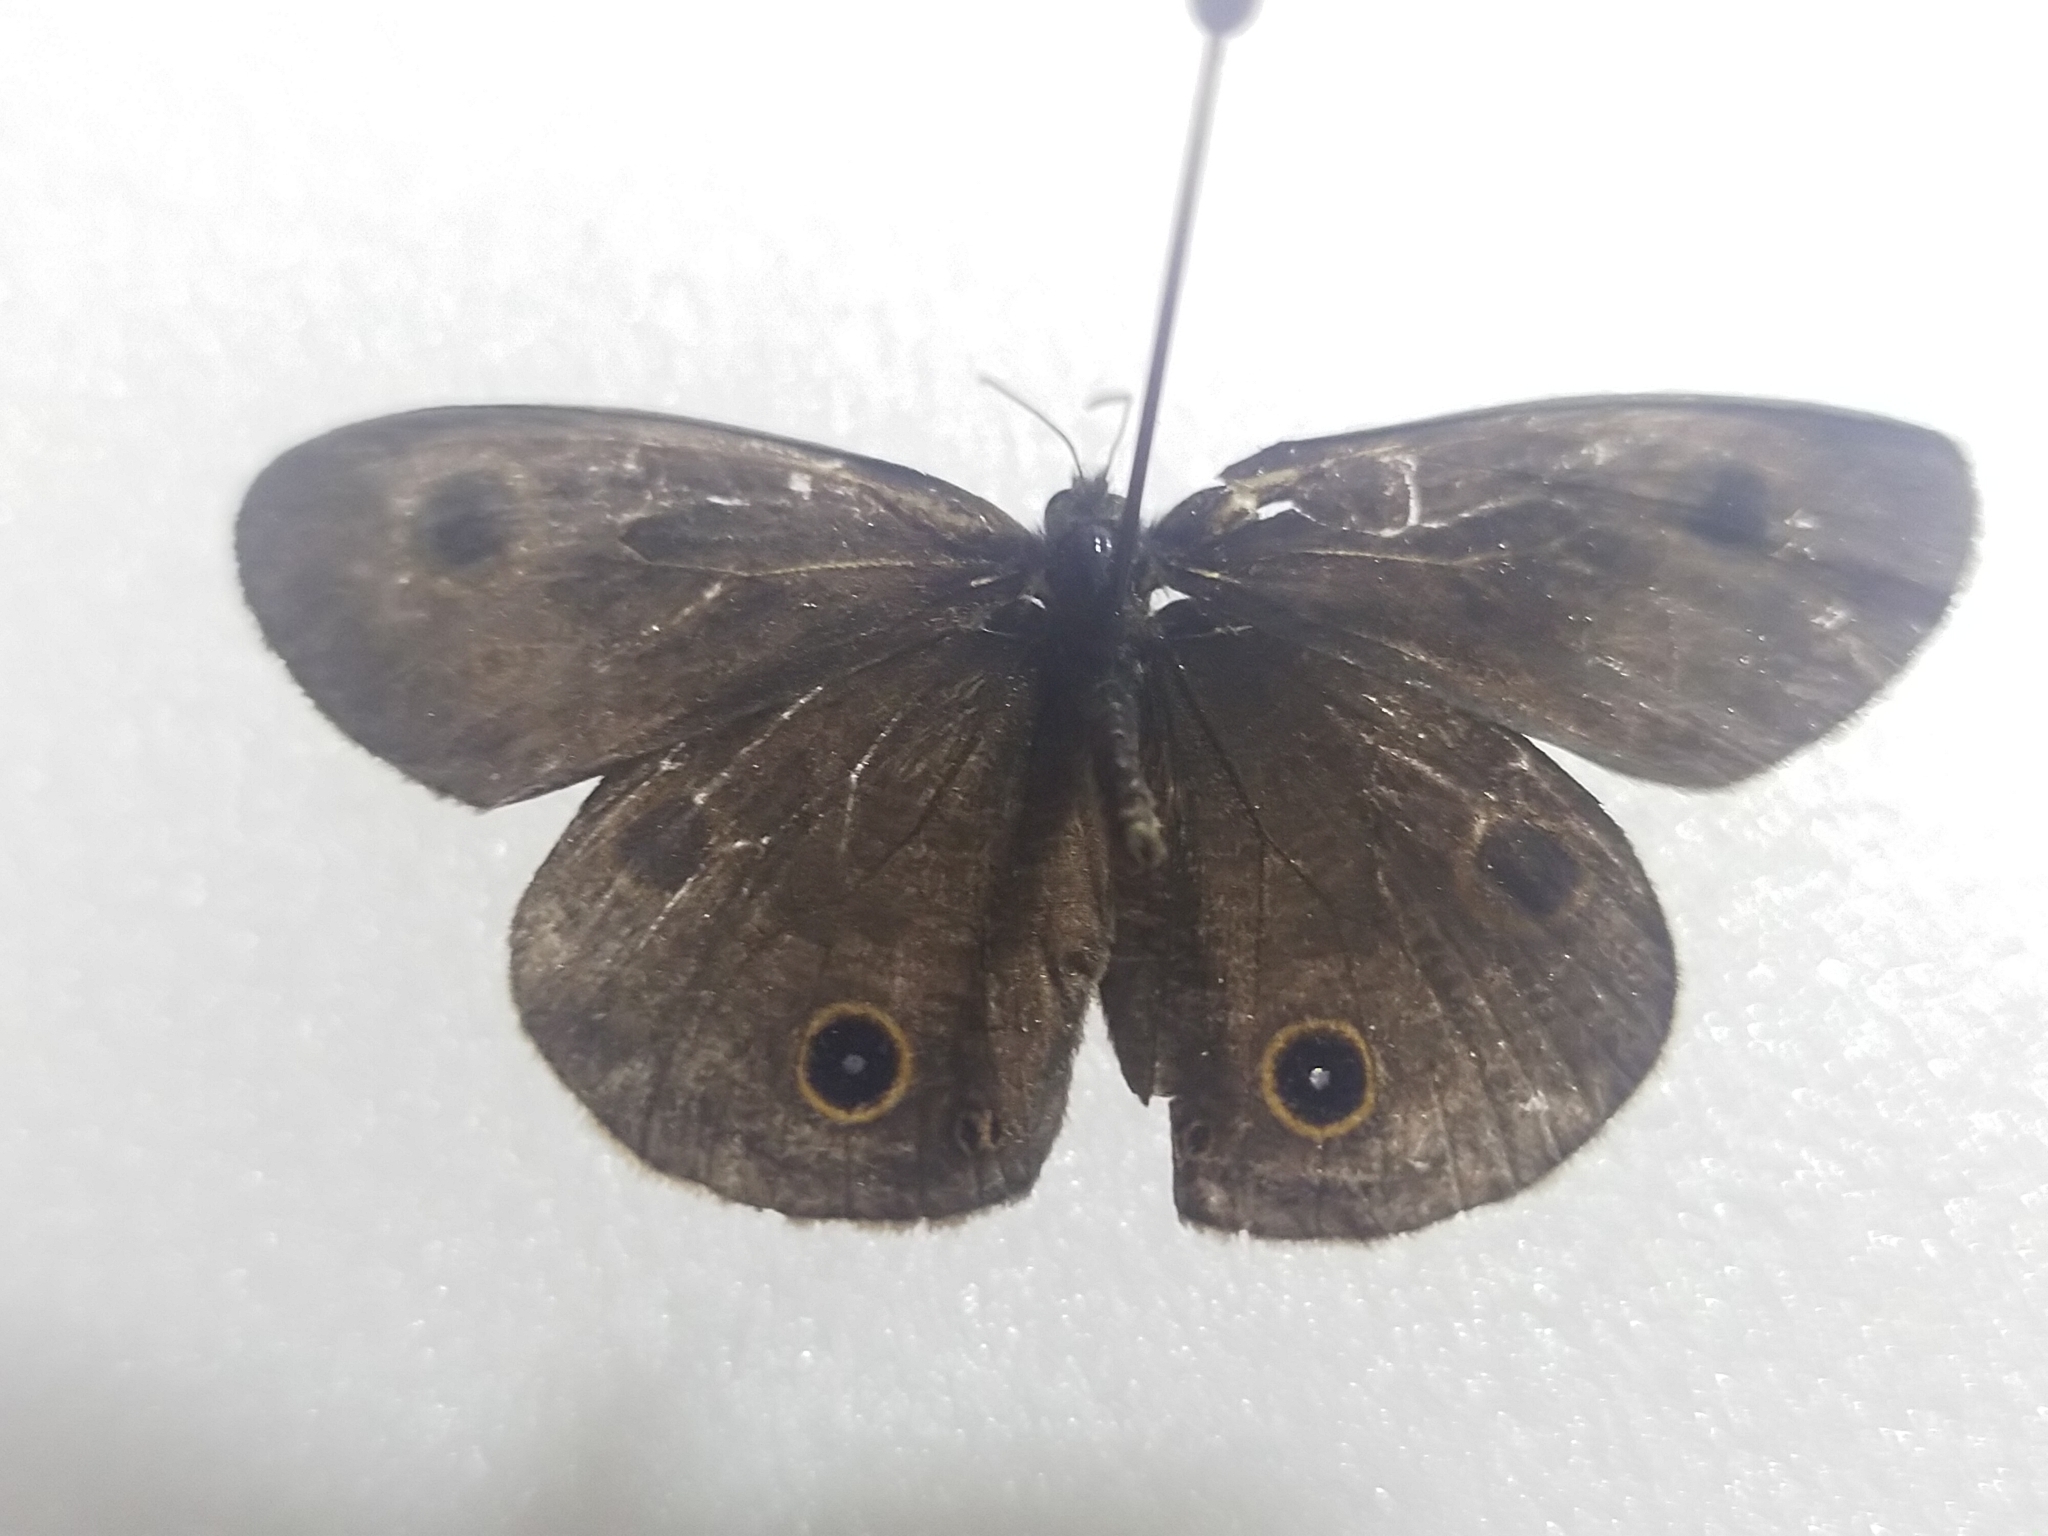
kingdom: Animalia
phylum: Arthropoda
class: Insecta
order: Lepidoptera
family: Nymphalidae
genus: Ypthima
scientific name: Ypthima multistriata
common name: Striated ringlet
